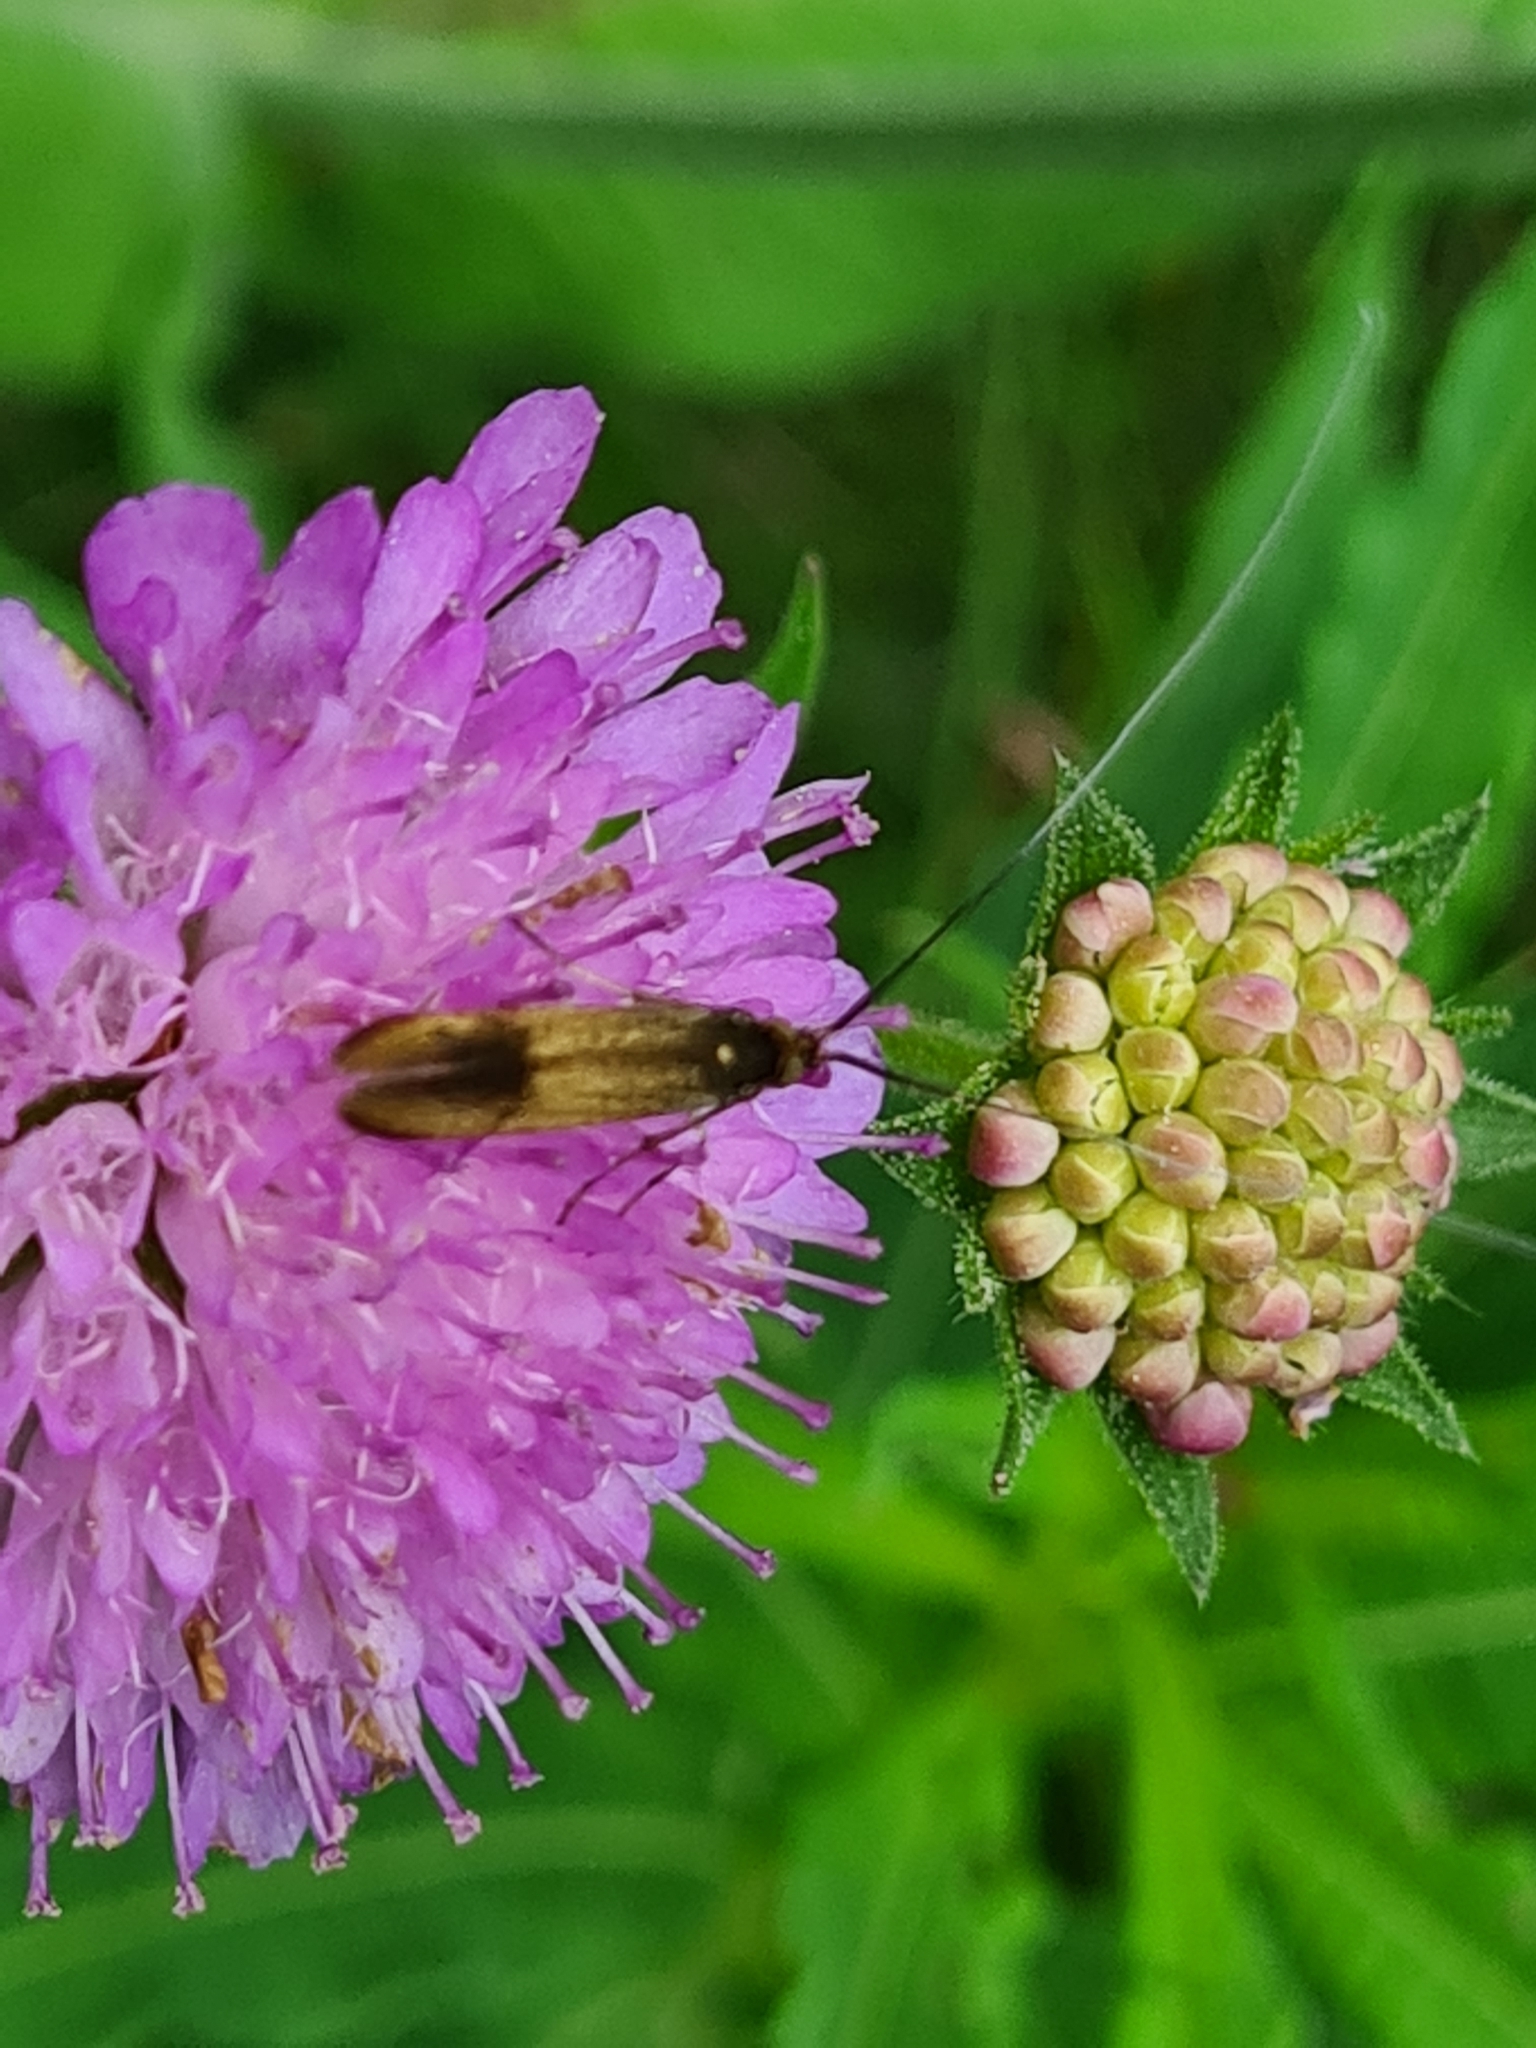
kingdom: Animalia
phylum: Arthropoda
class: Insecta
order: Lepidoptera
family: Adelidae
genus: Nemophora
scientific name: Nemophora metallica
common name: Brassy long-horn
